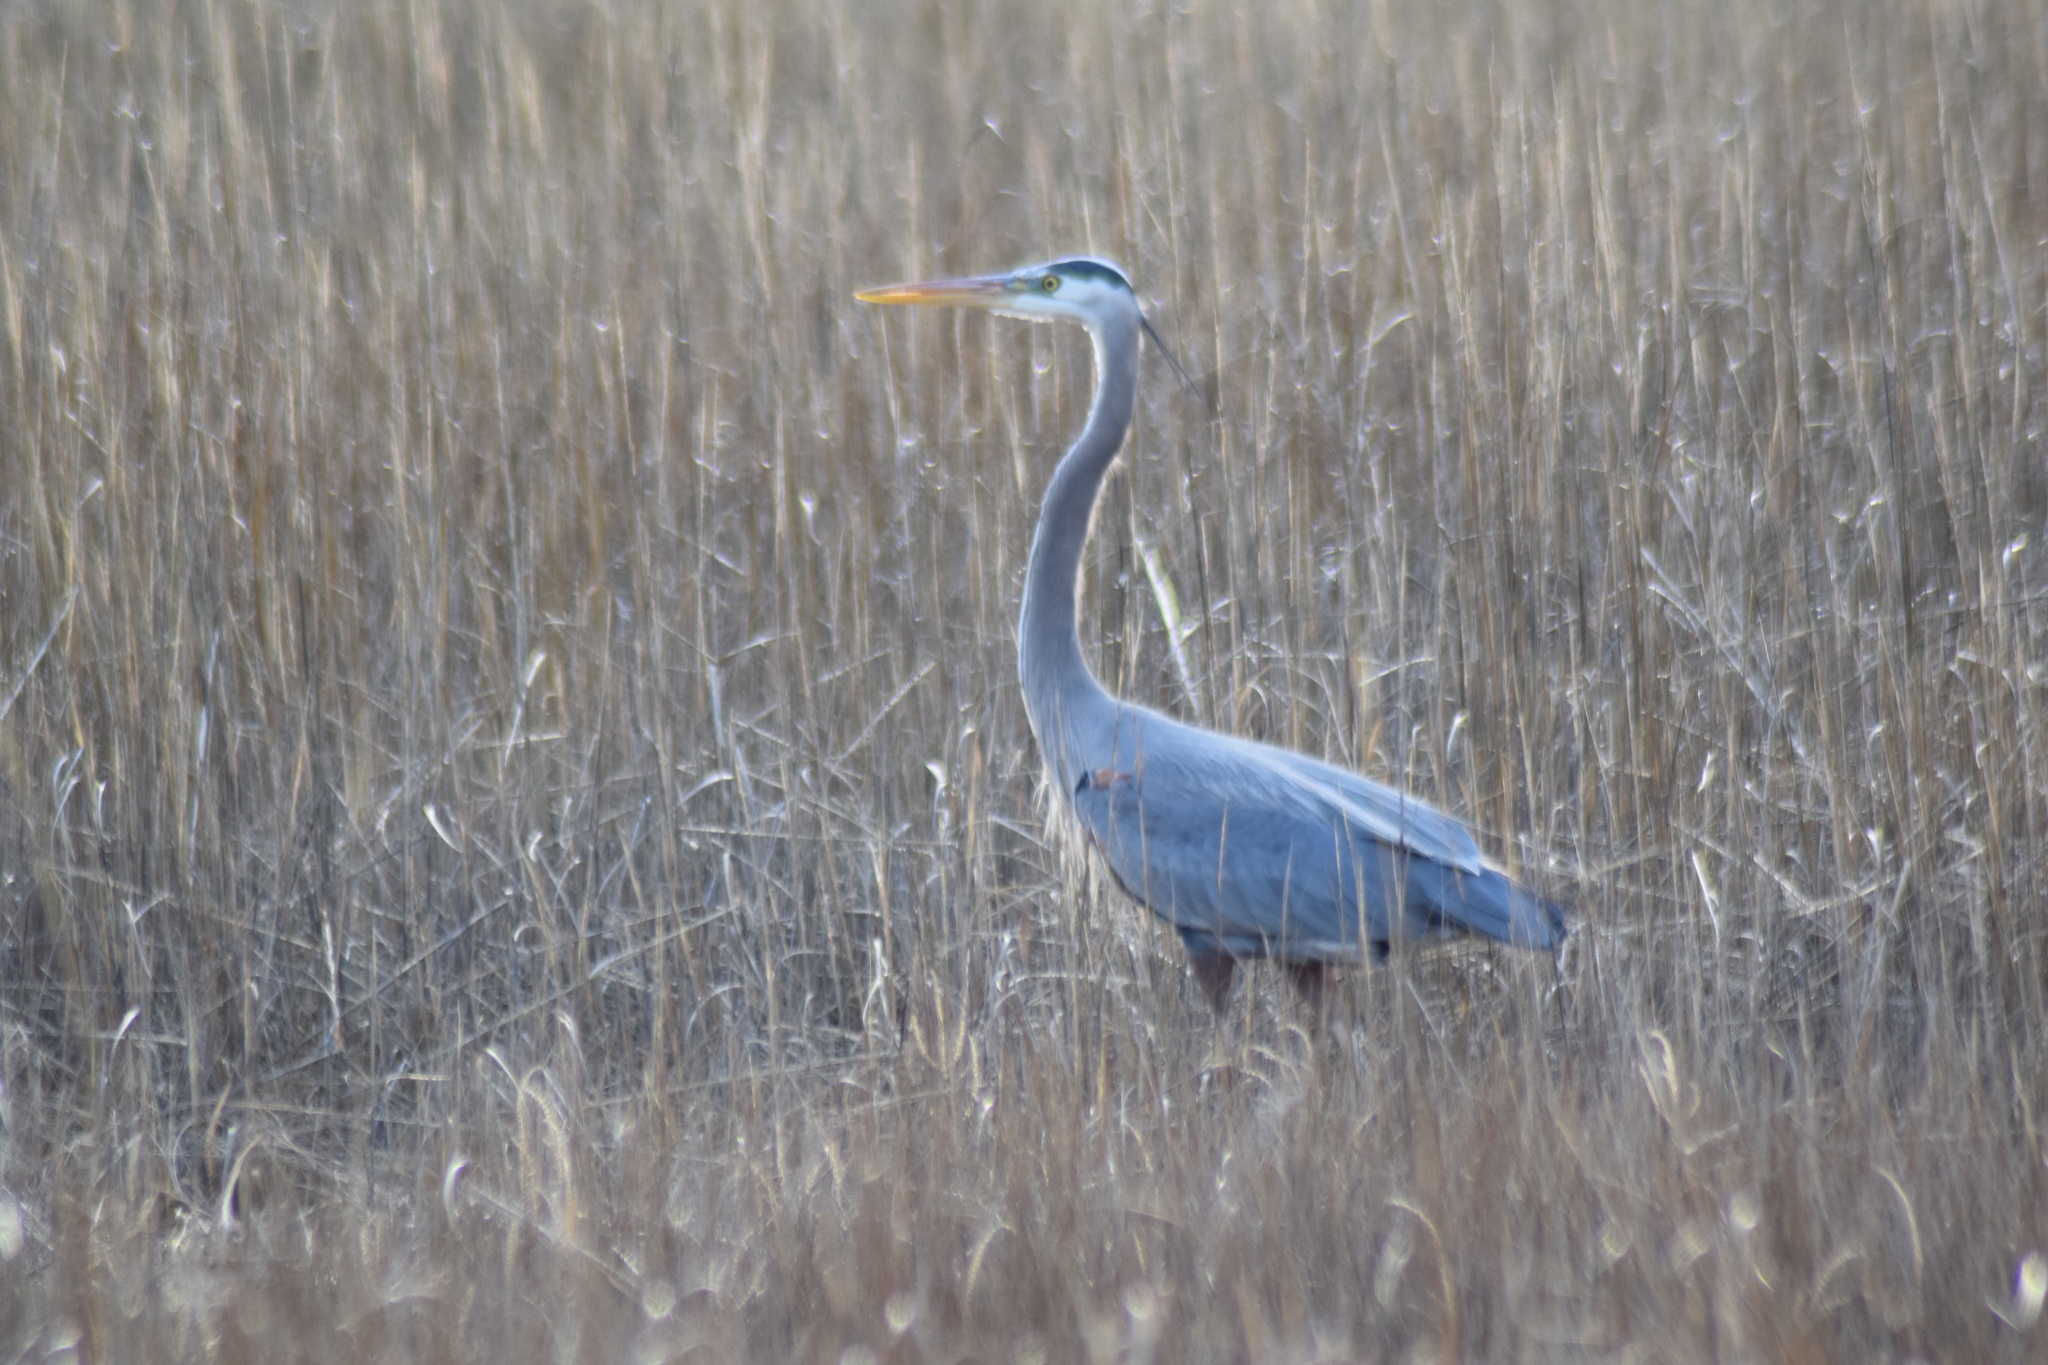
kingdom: Animalia
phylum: Chordata
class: Aves
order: Pelecaniformes
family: Ardeidae
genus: Ardea
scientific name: Ardea herodias
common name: Great blue heron
